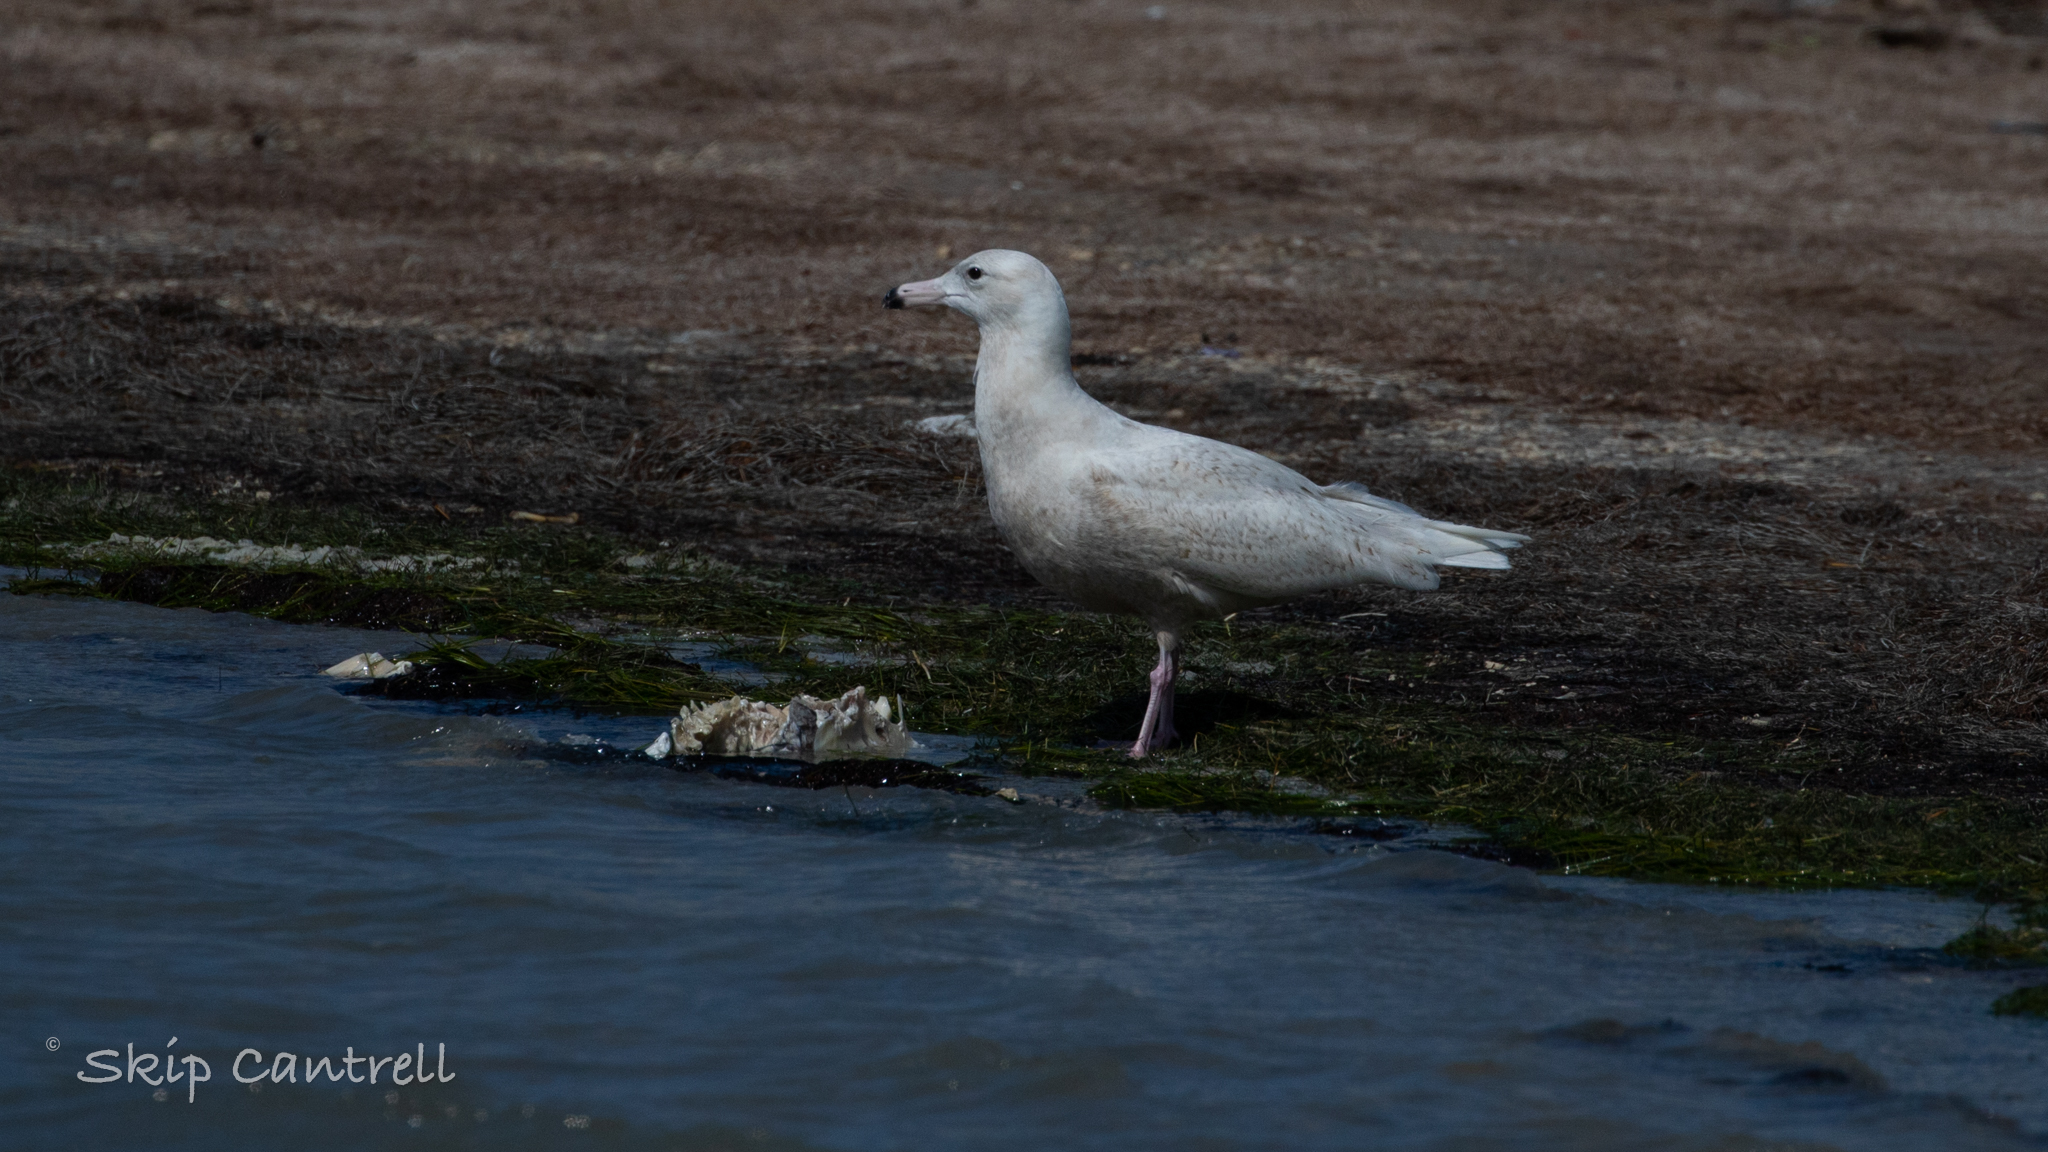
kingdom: Animalia
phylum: Chordata
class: Aves
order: Charadriiformes
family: Laridae
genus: Larus
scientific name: Larus hyperboreus
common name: Glaucous gull
